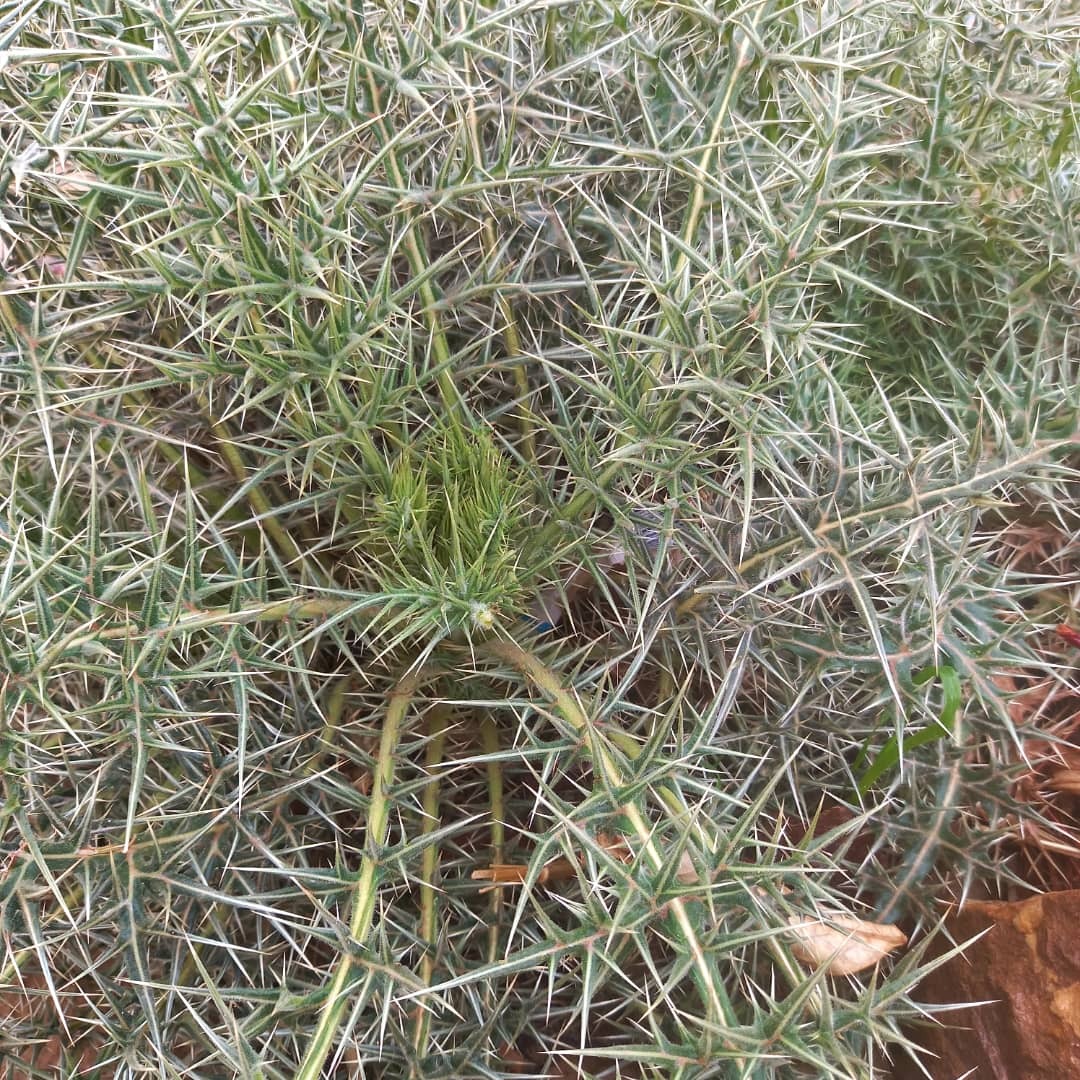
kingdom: Plantae
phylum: Tracheophyta
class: Magnoliopsida
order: Asterales
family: Asteraceae
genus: Echinops
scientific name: Echinops spinosissimus
